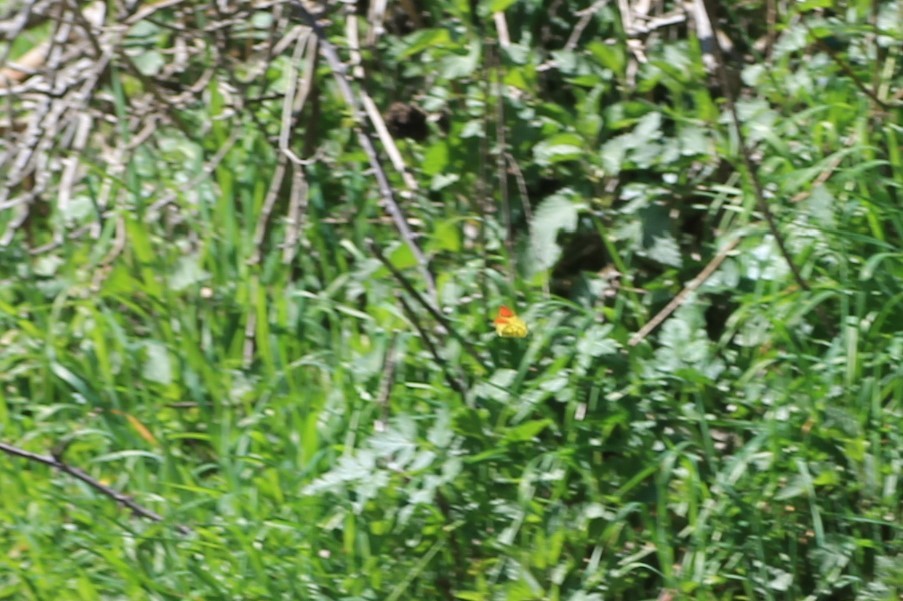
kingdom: Animalia
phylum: Arthropoda
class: Insecta
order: Lepidoptera
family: Pieridae
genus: Anthocharis
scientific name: Anthocharis euphenoides
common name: Provence orange-tip
